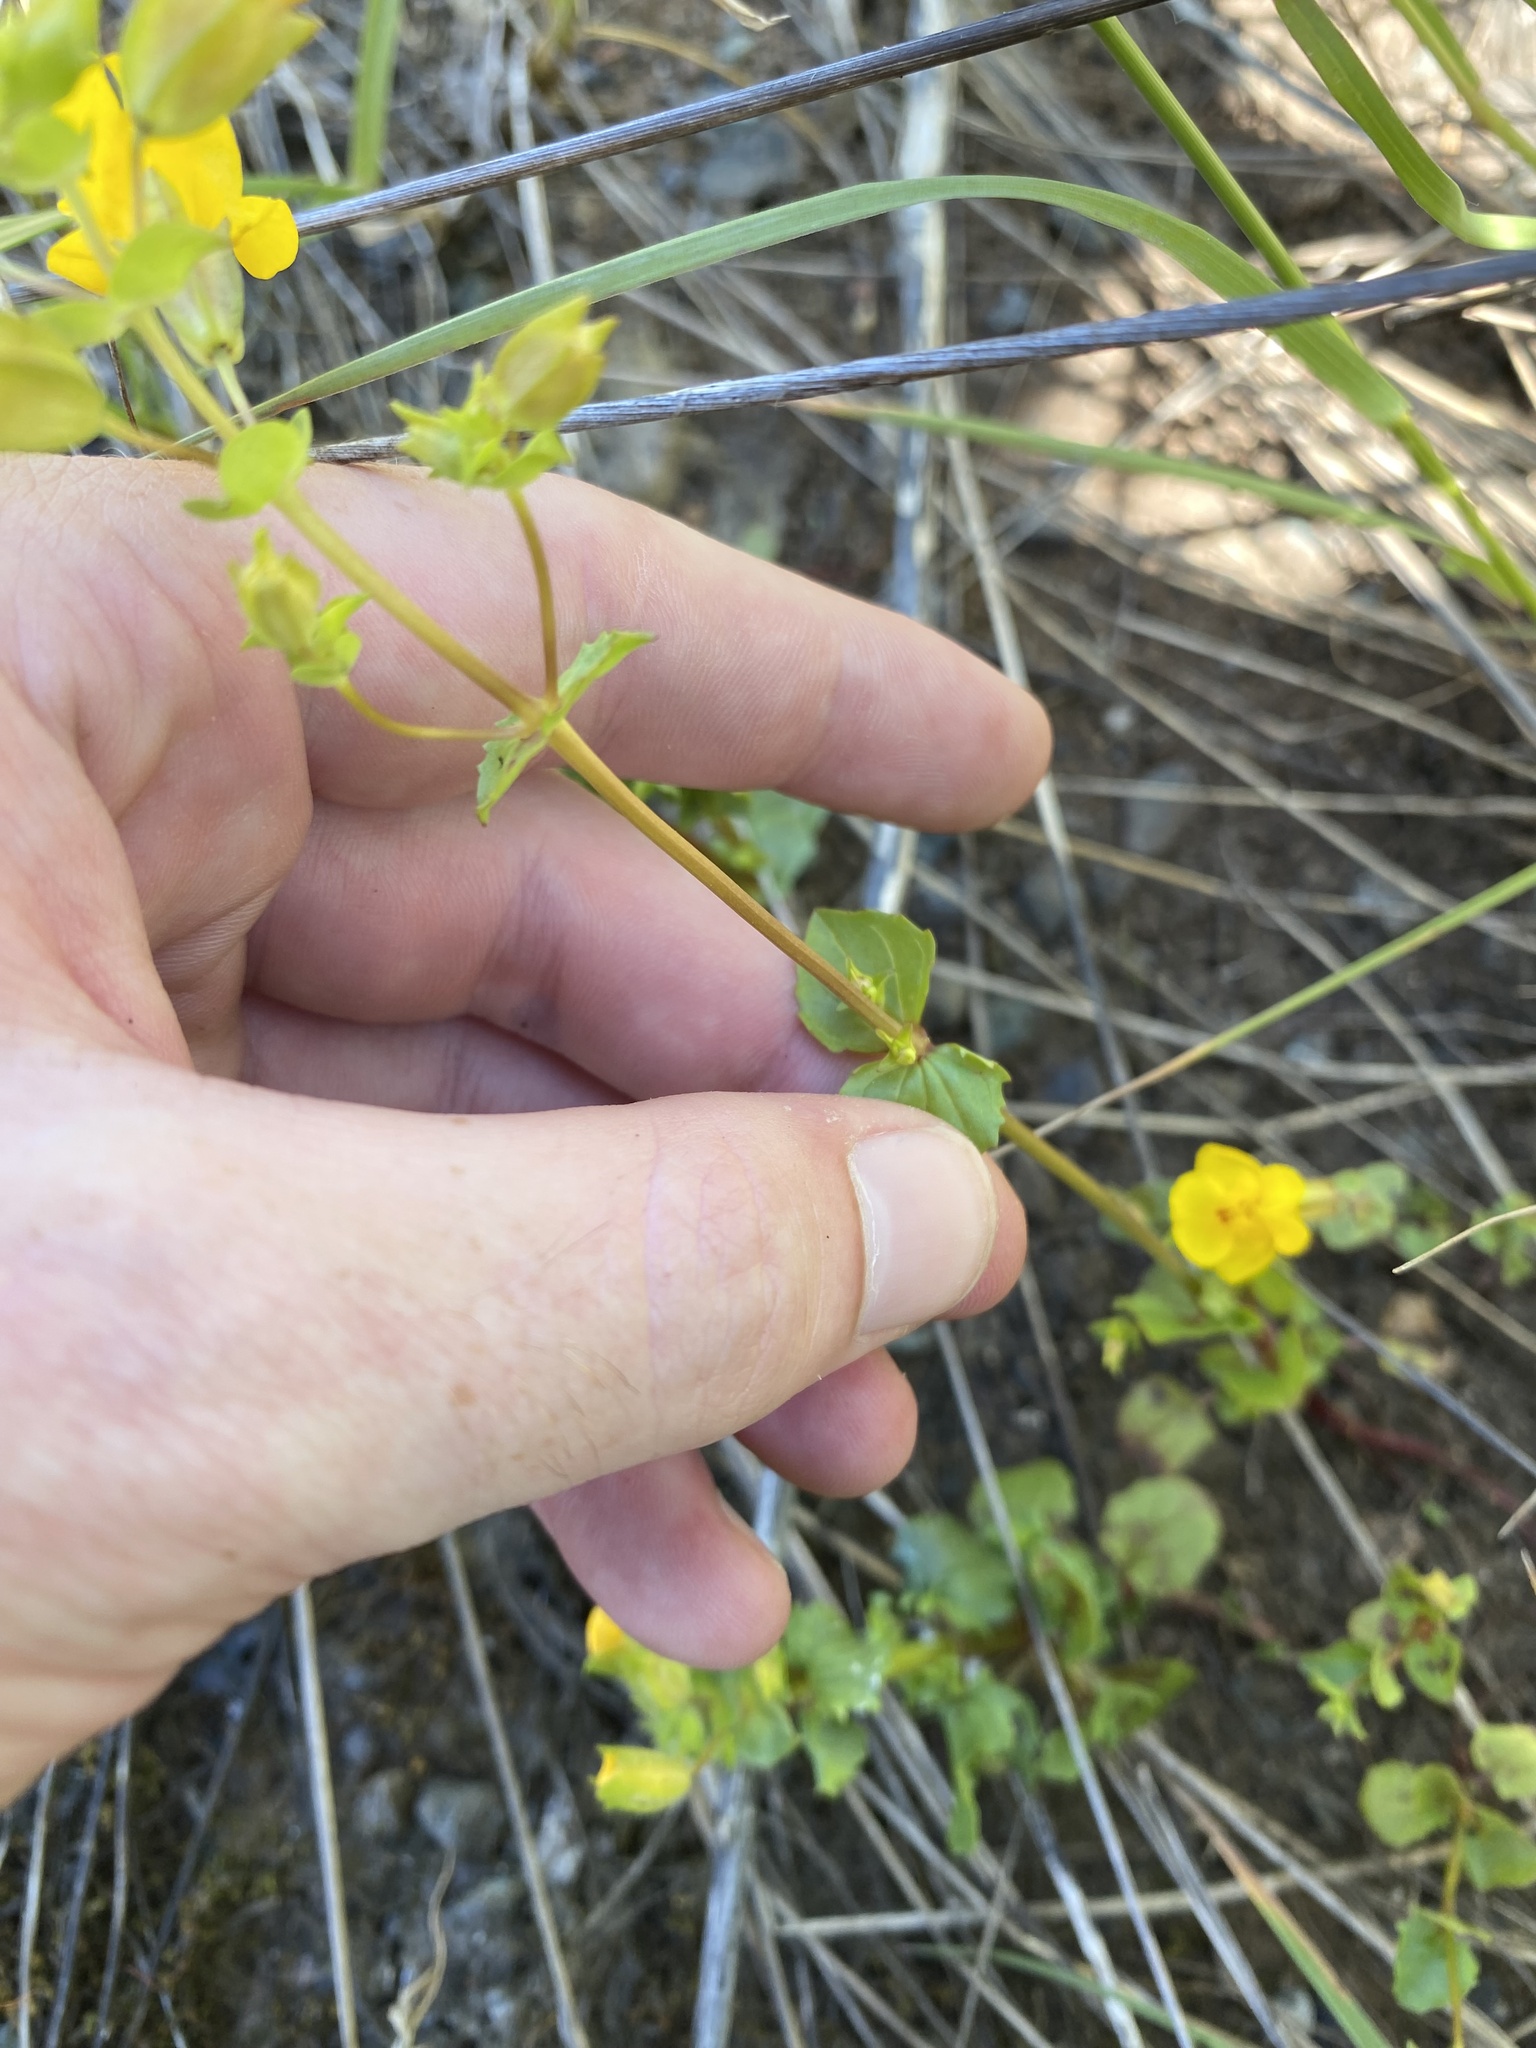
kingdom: Plantae
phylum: Tracheophyta
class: Magnoliopsida
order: Lamiales
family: Phrymaceae
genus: Erythranthe
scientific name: Erythranthe microphylla
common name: Bentham's monkeyflower
